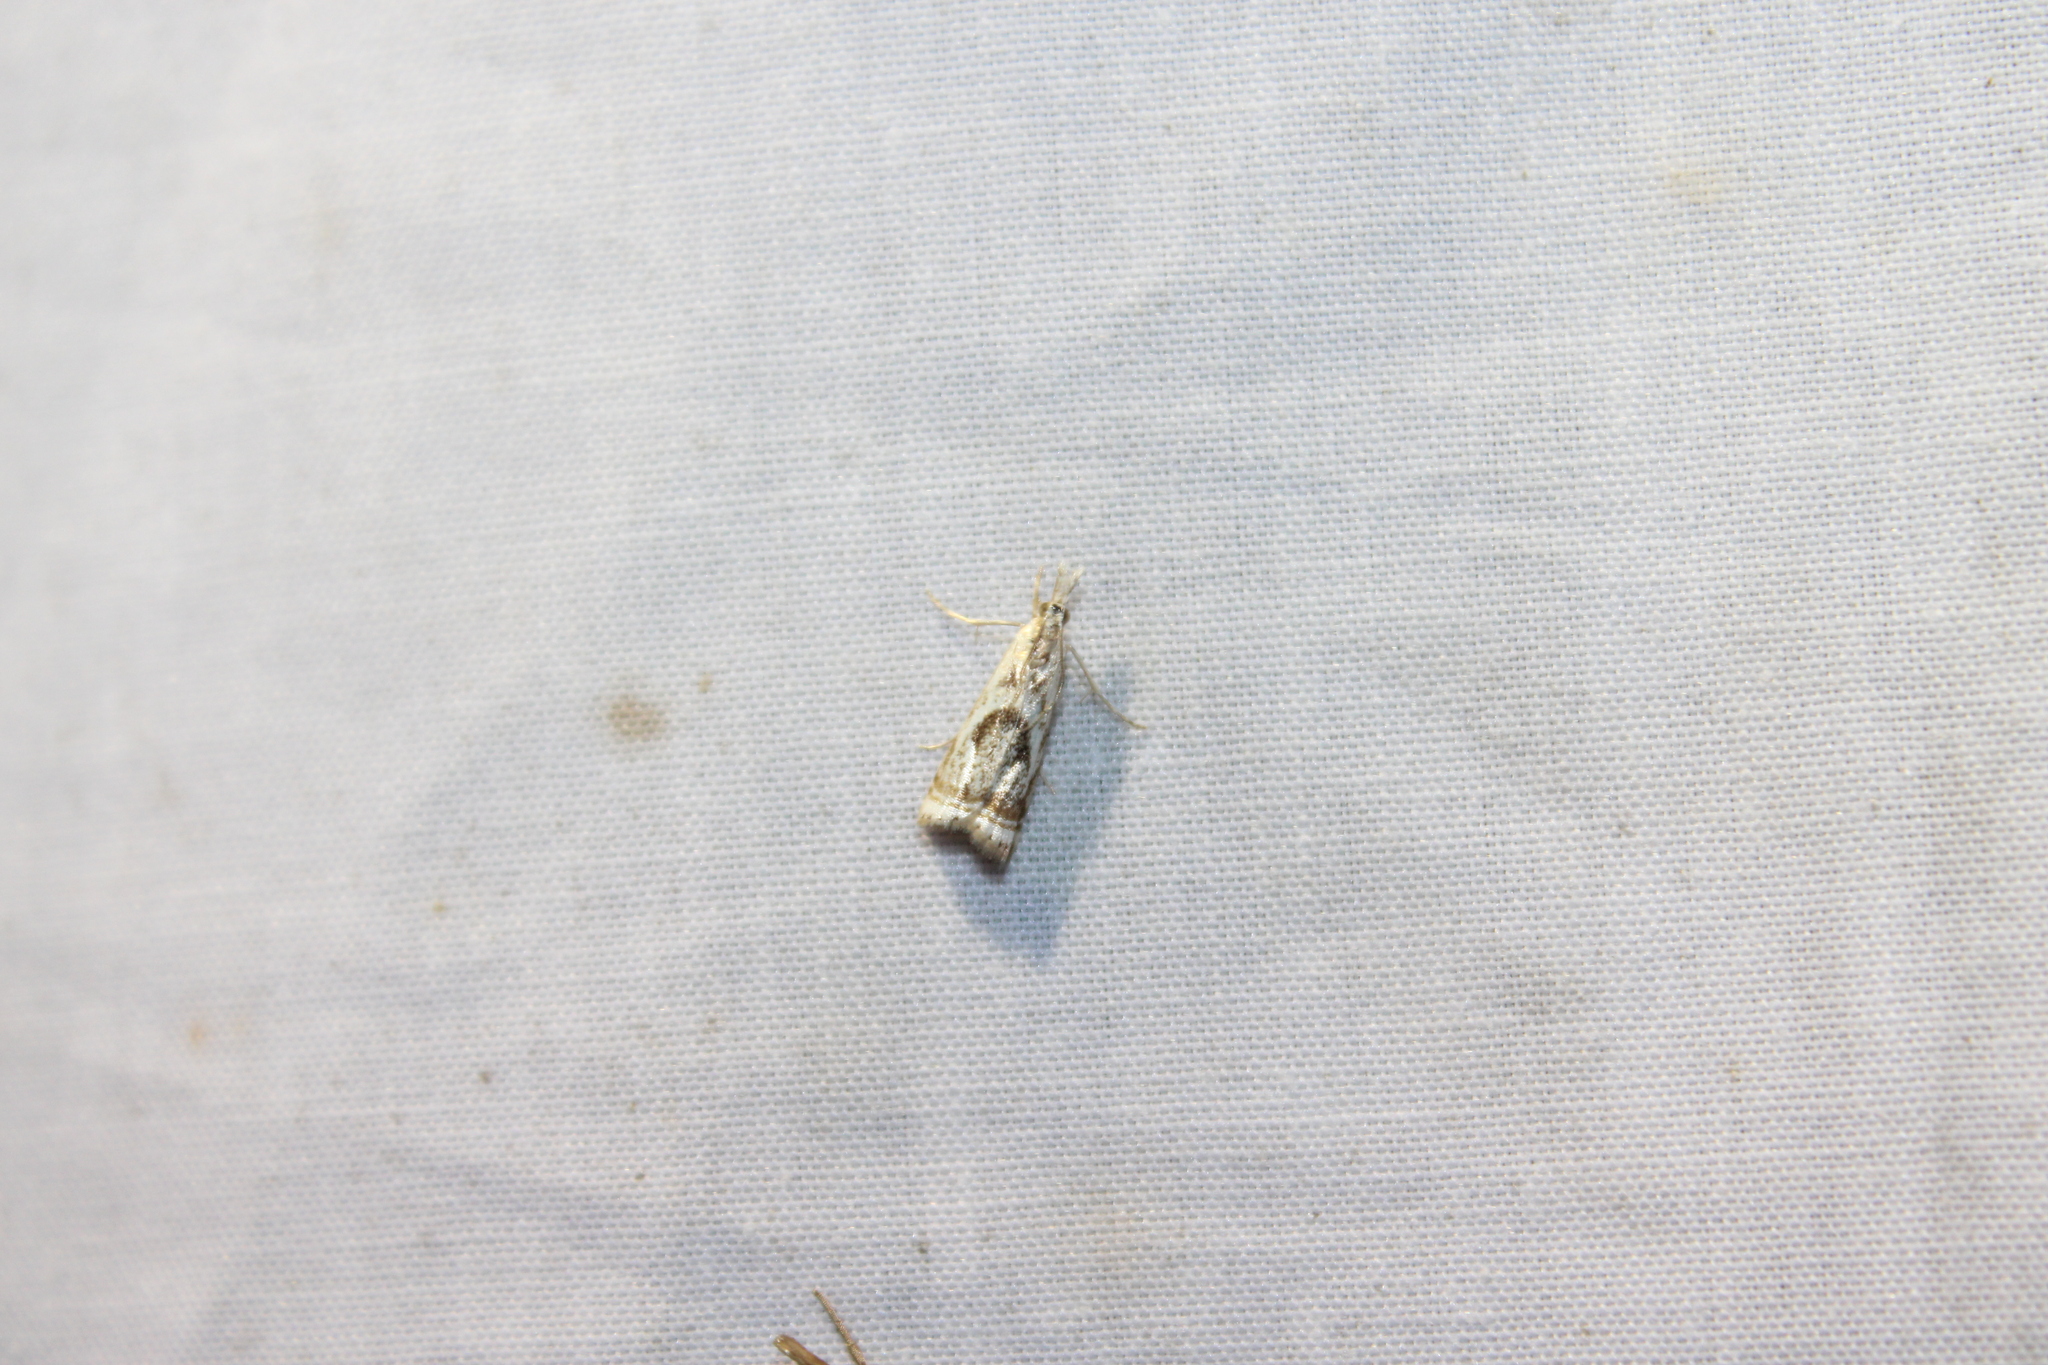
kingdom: Animalia
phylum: Arthropoda
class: Insecta
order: Lepidoptera
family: Crambidae
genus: Microcrambus
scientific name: Microcrambus elegans
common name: Elegant grass-veneer
